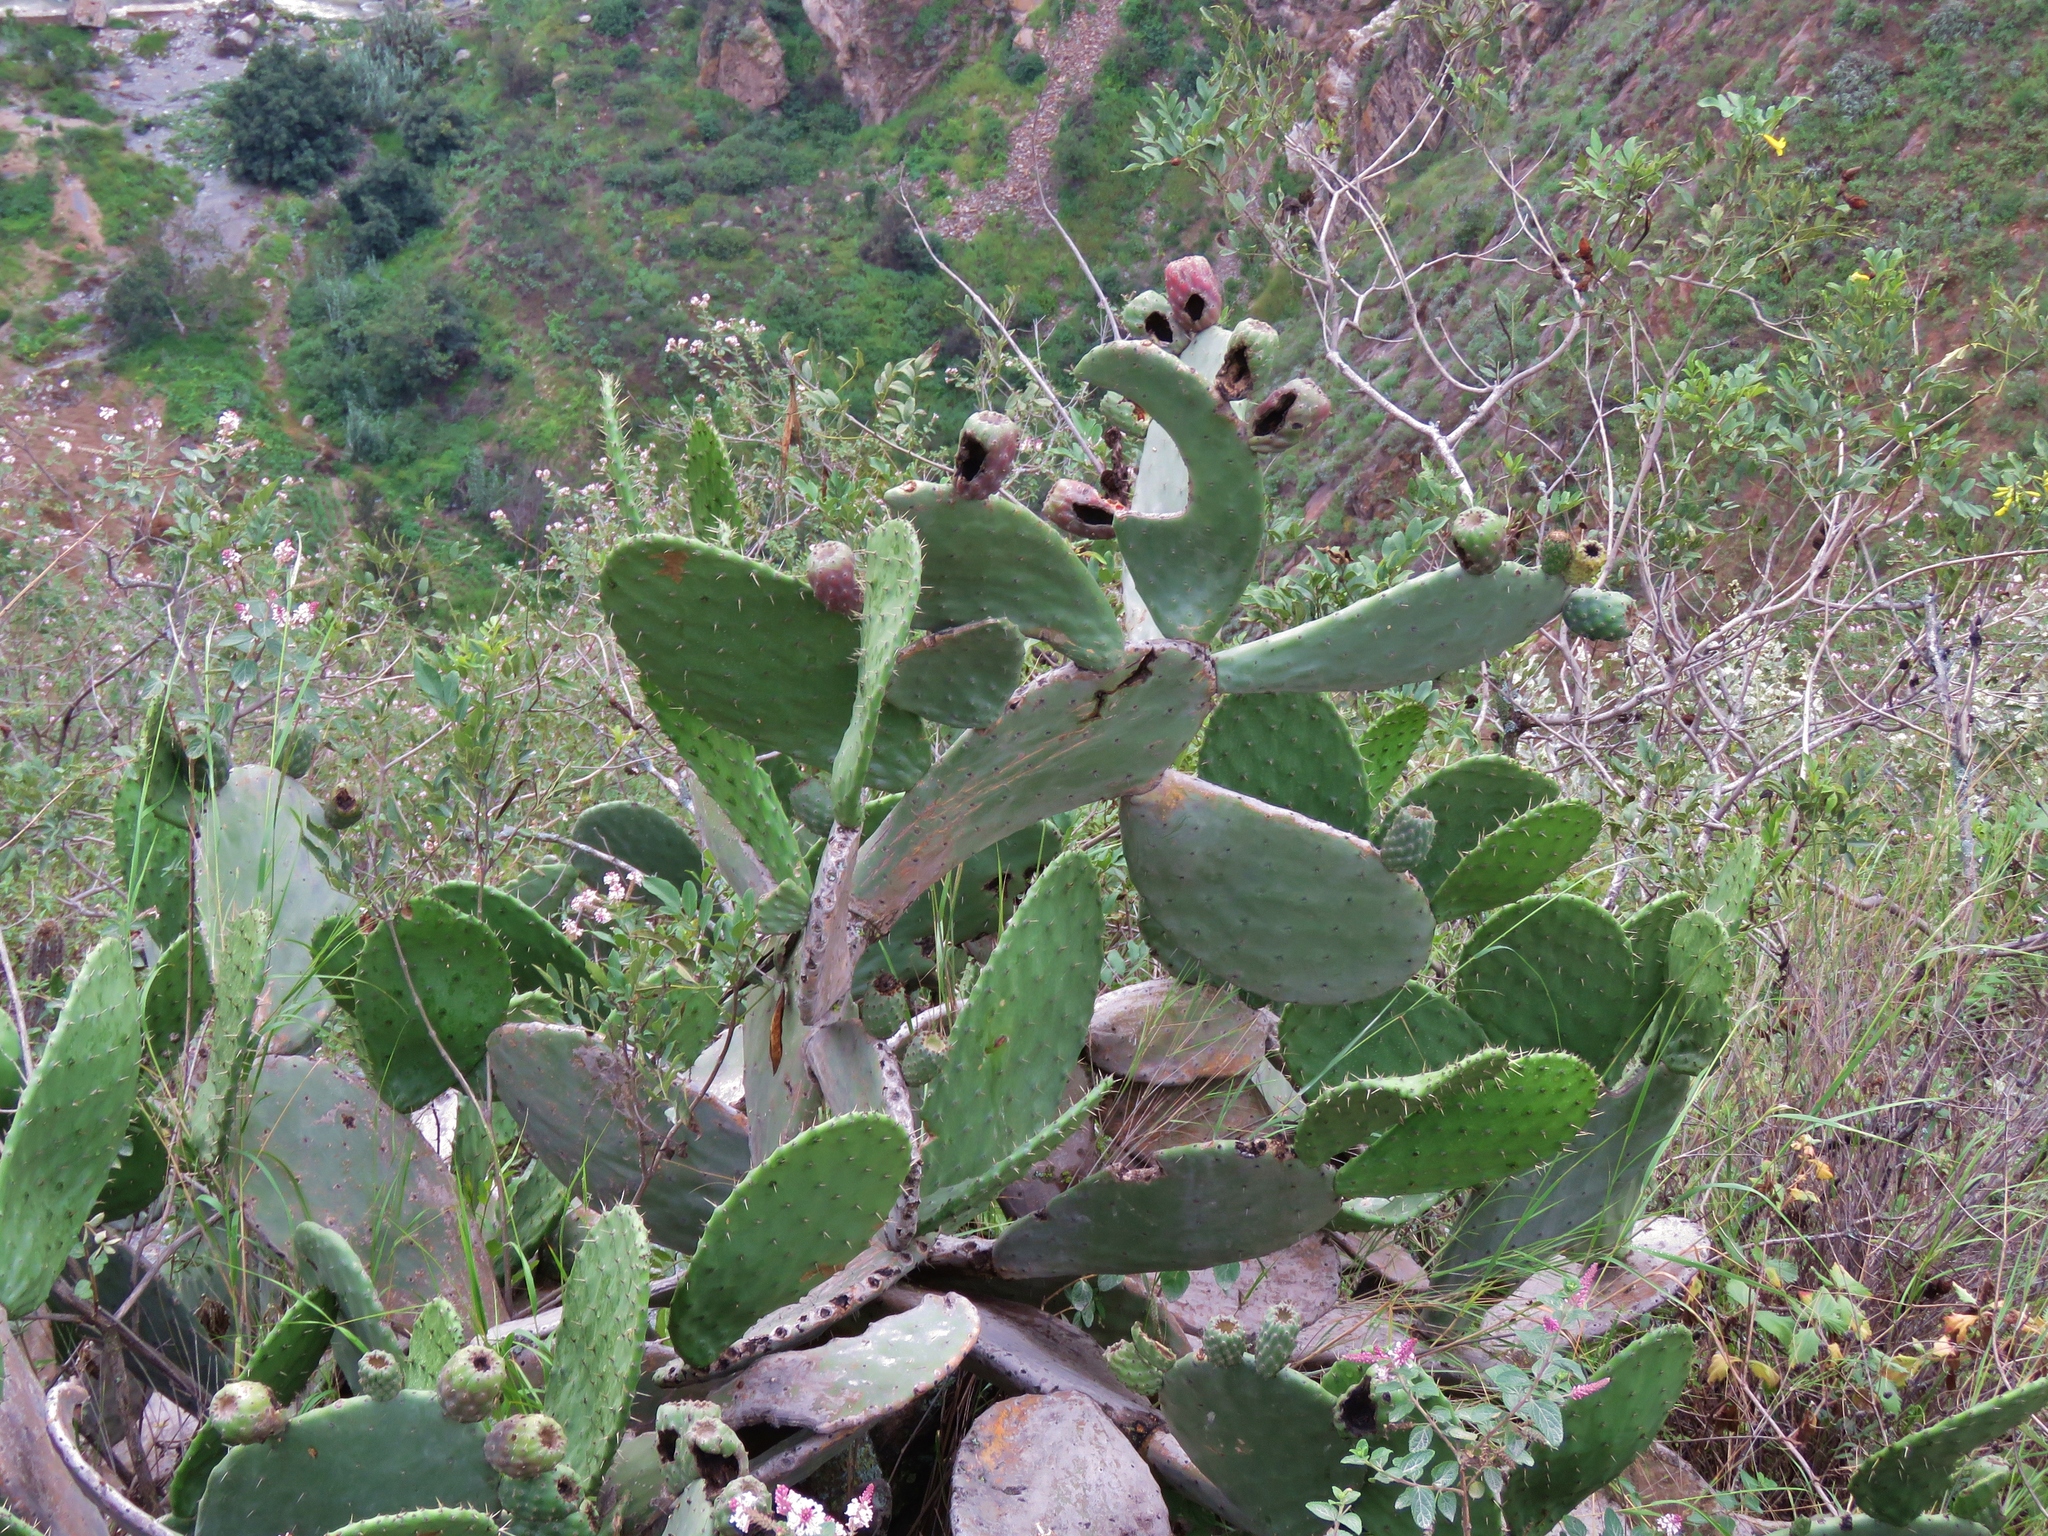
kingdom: Plantae
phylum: Tracheophyta
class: Magnoliopsida
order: Caryophyllales
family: Cactaceae
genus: Opuntia
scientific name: Opuntia ficus-indica
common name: Barbary fig
